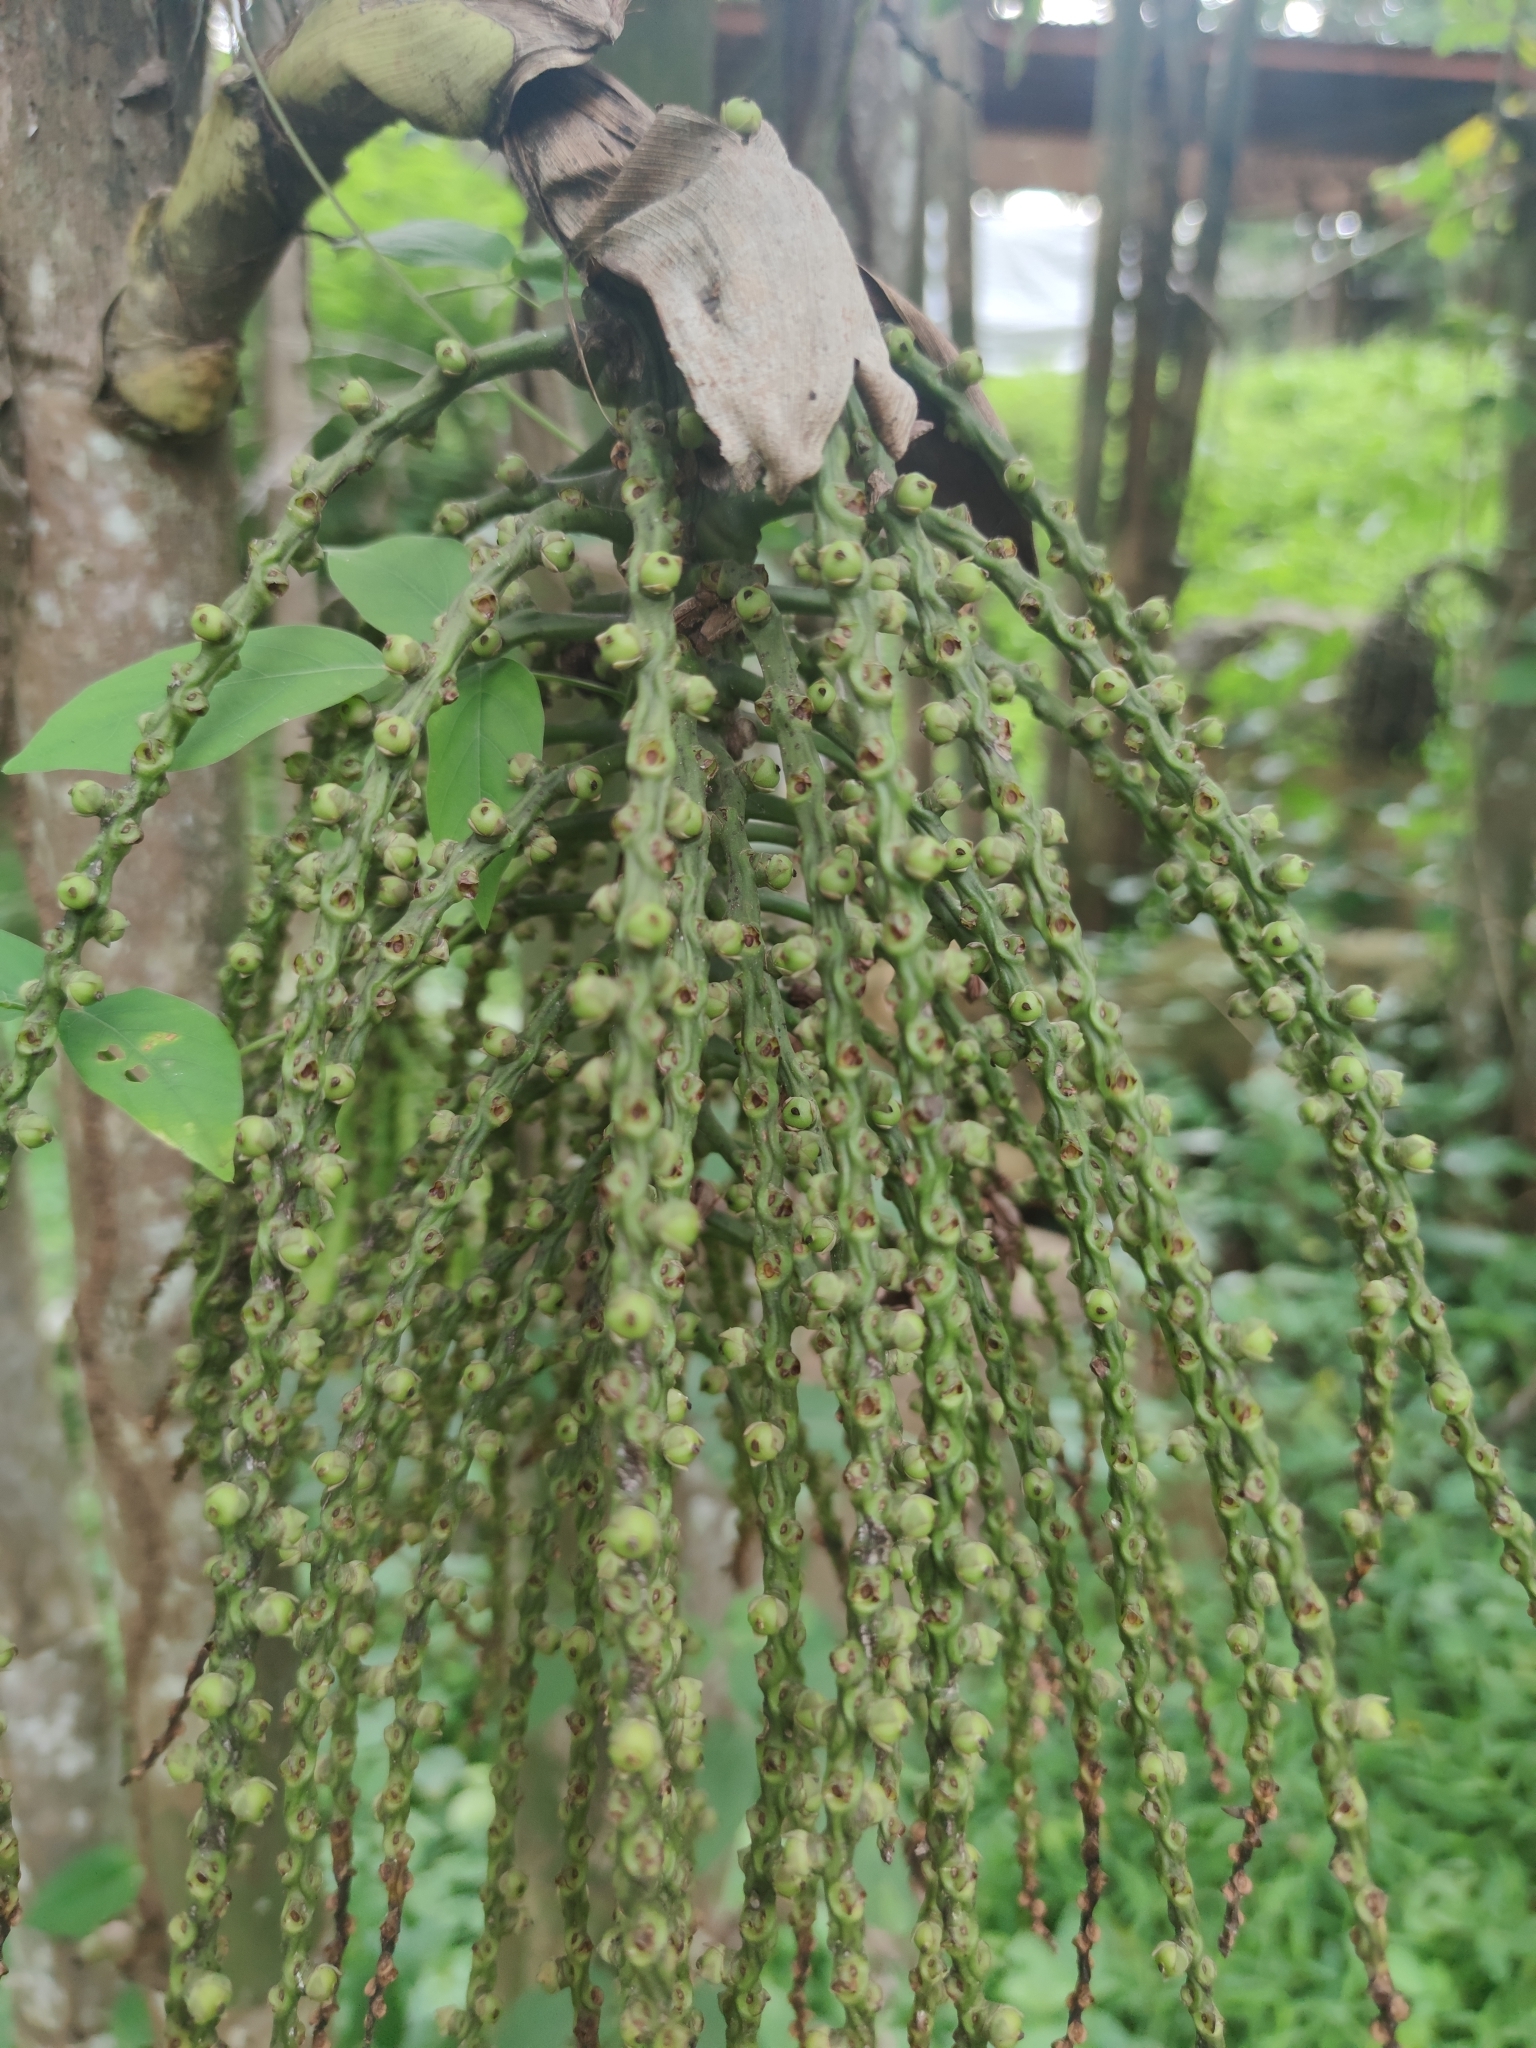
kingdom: Plantae
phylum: Tracheophyta
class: Liliopsida
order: Arecales
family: Arecaceae
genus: Caryota
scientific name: Caryota urens
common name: Jaggery palm
